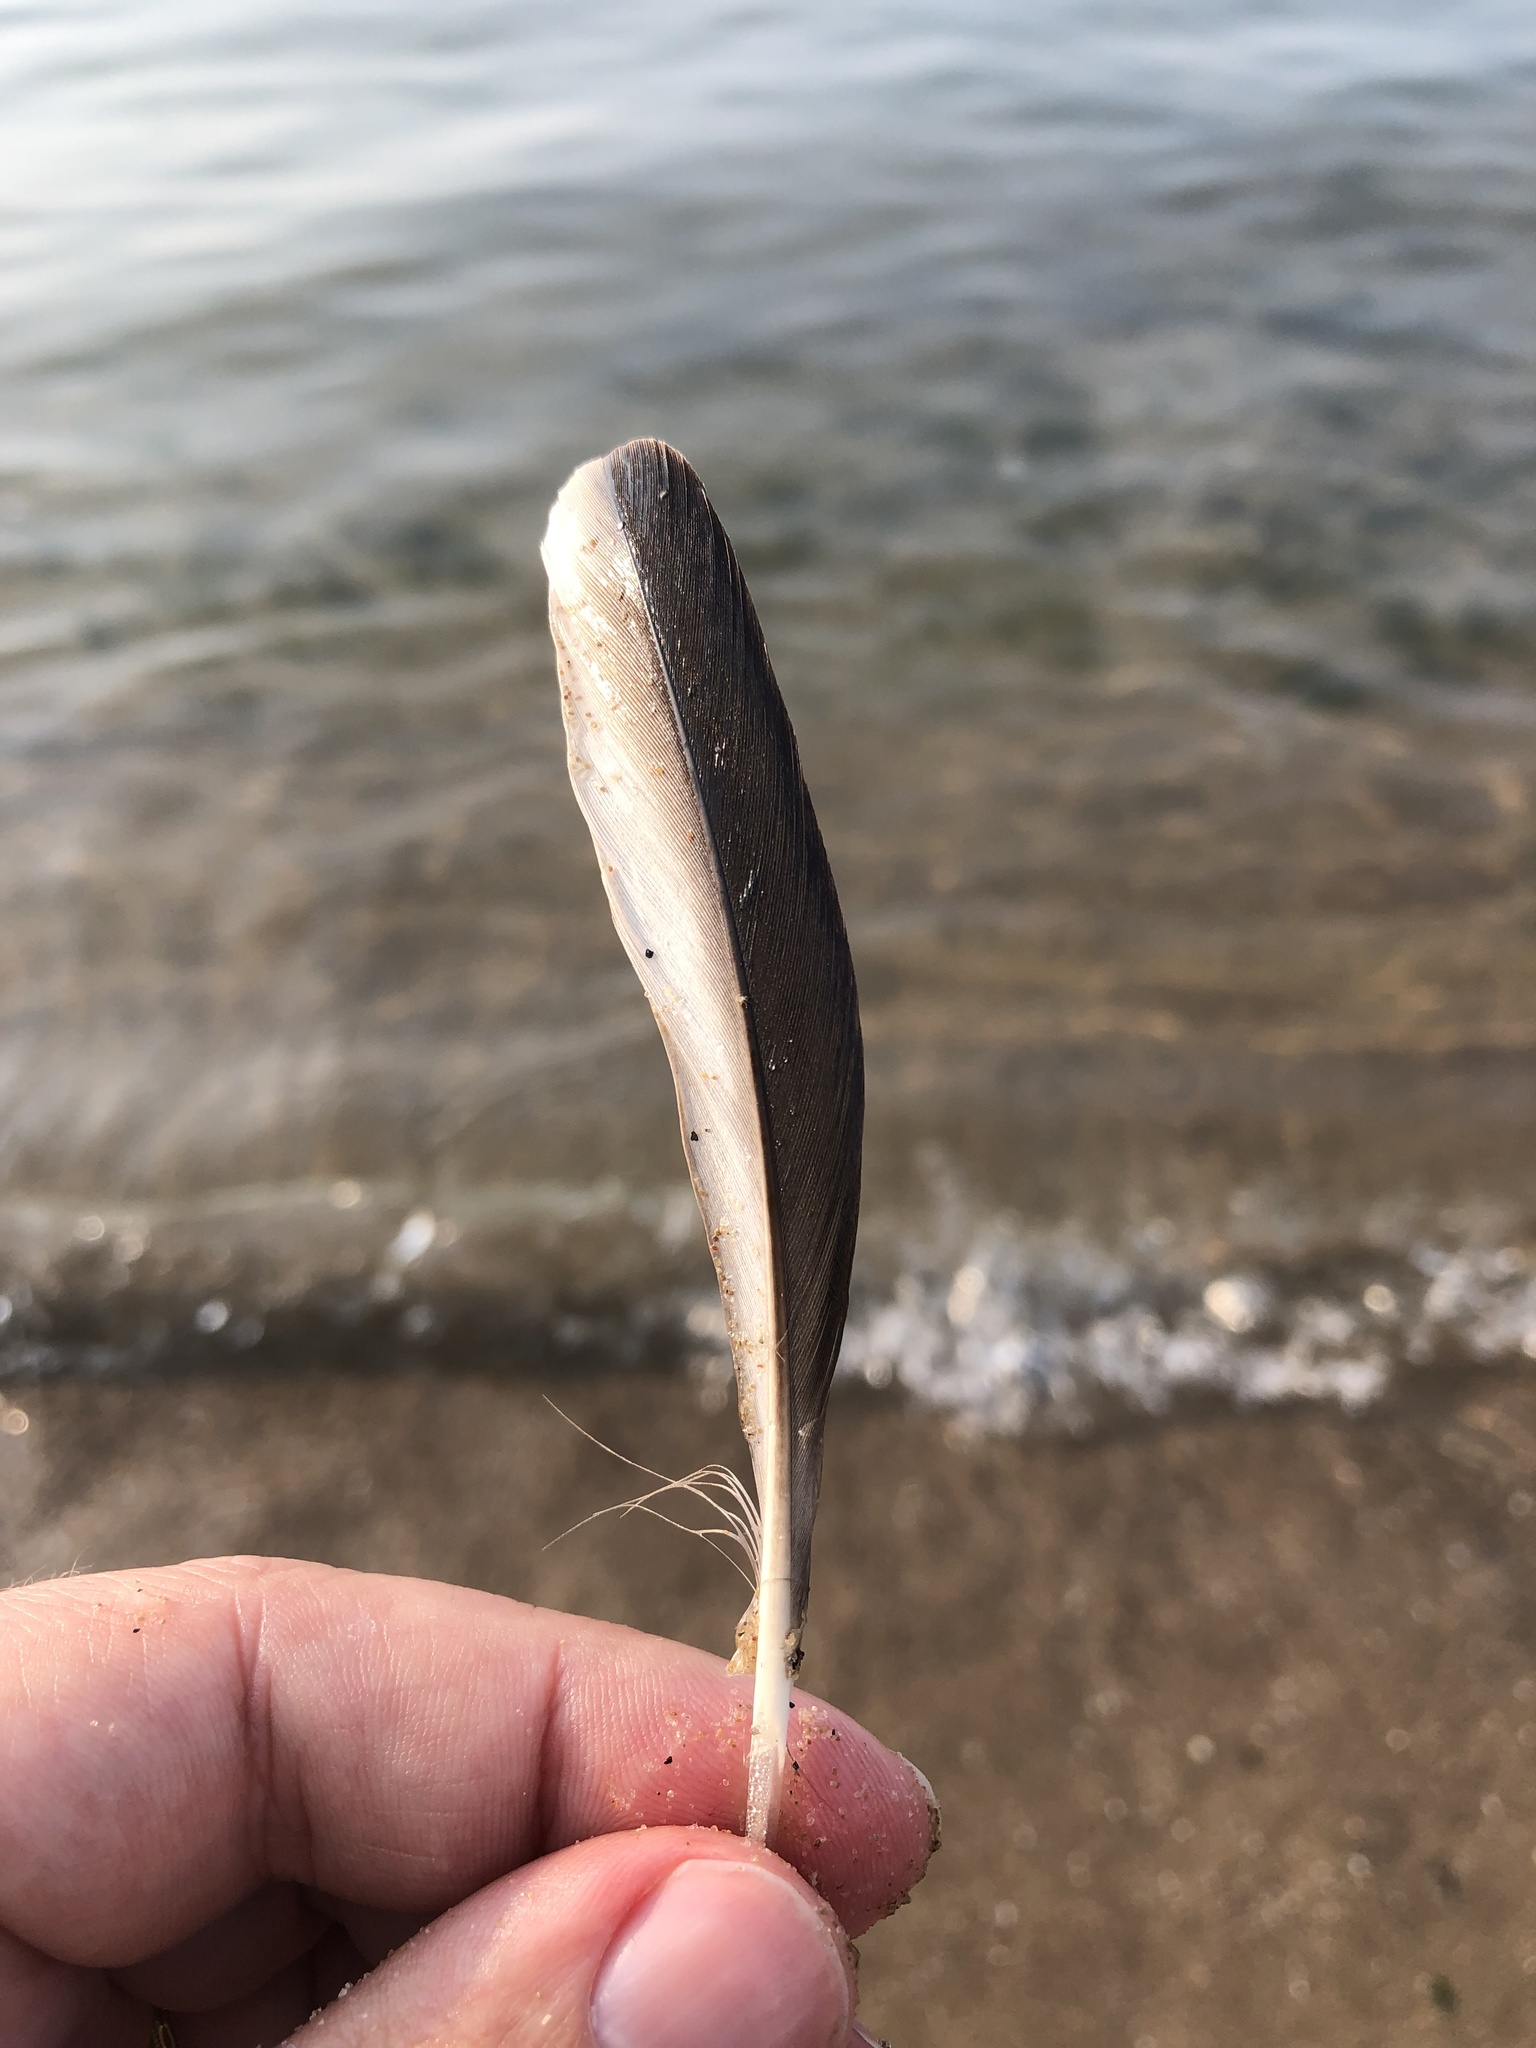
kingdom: Animalia
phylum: Chordata
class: Aves
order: Anseriformes
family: Anatidae
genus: Mergus
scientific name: Mergus merganser
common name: Common merganser
